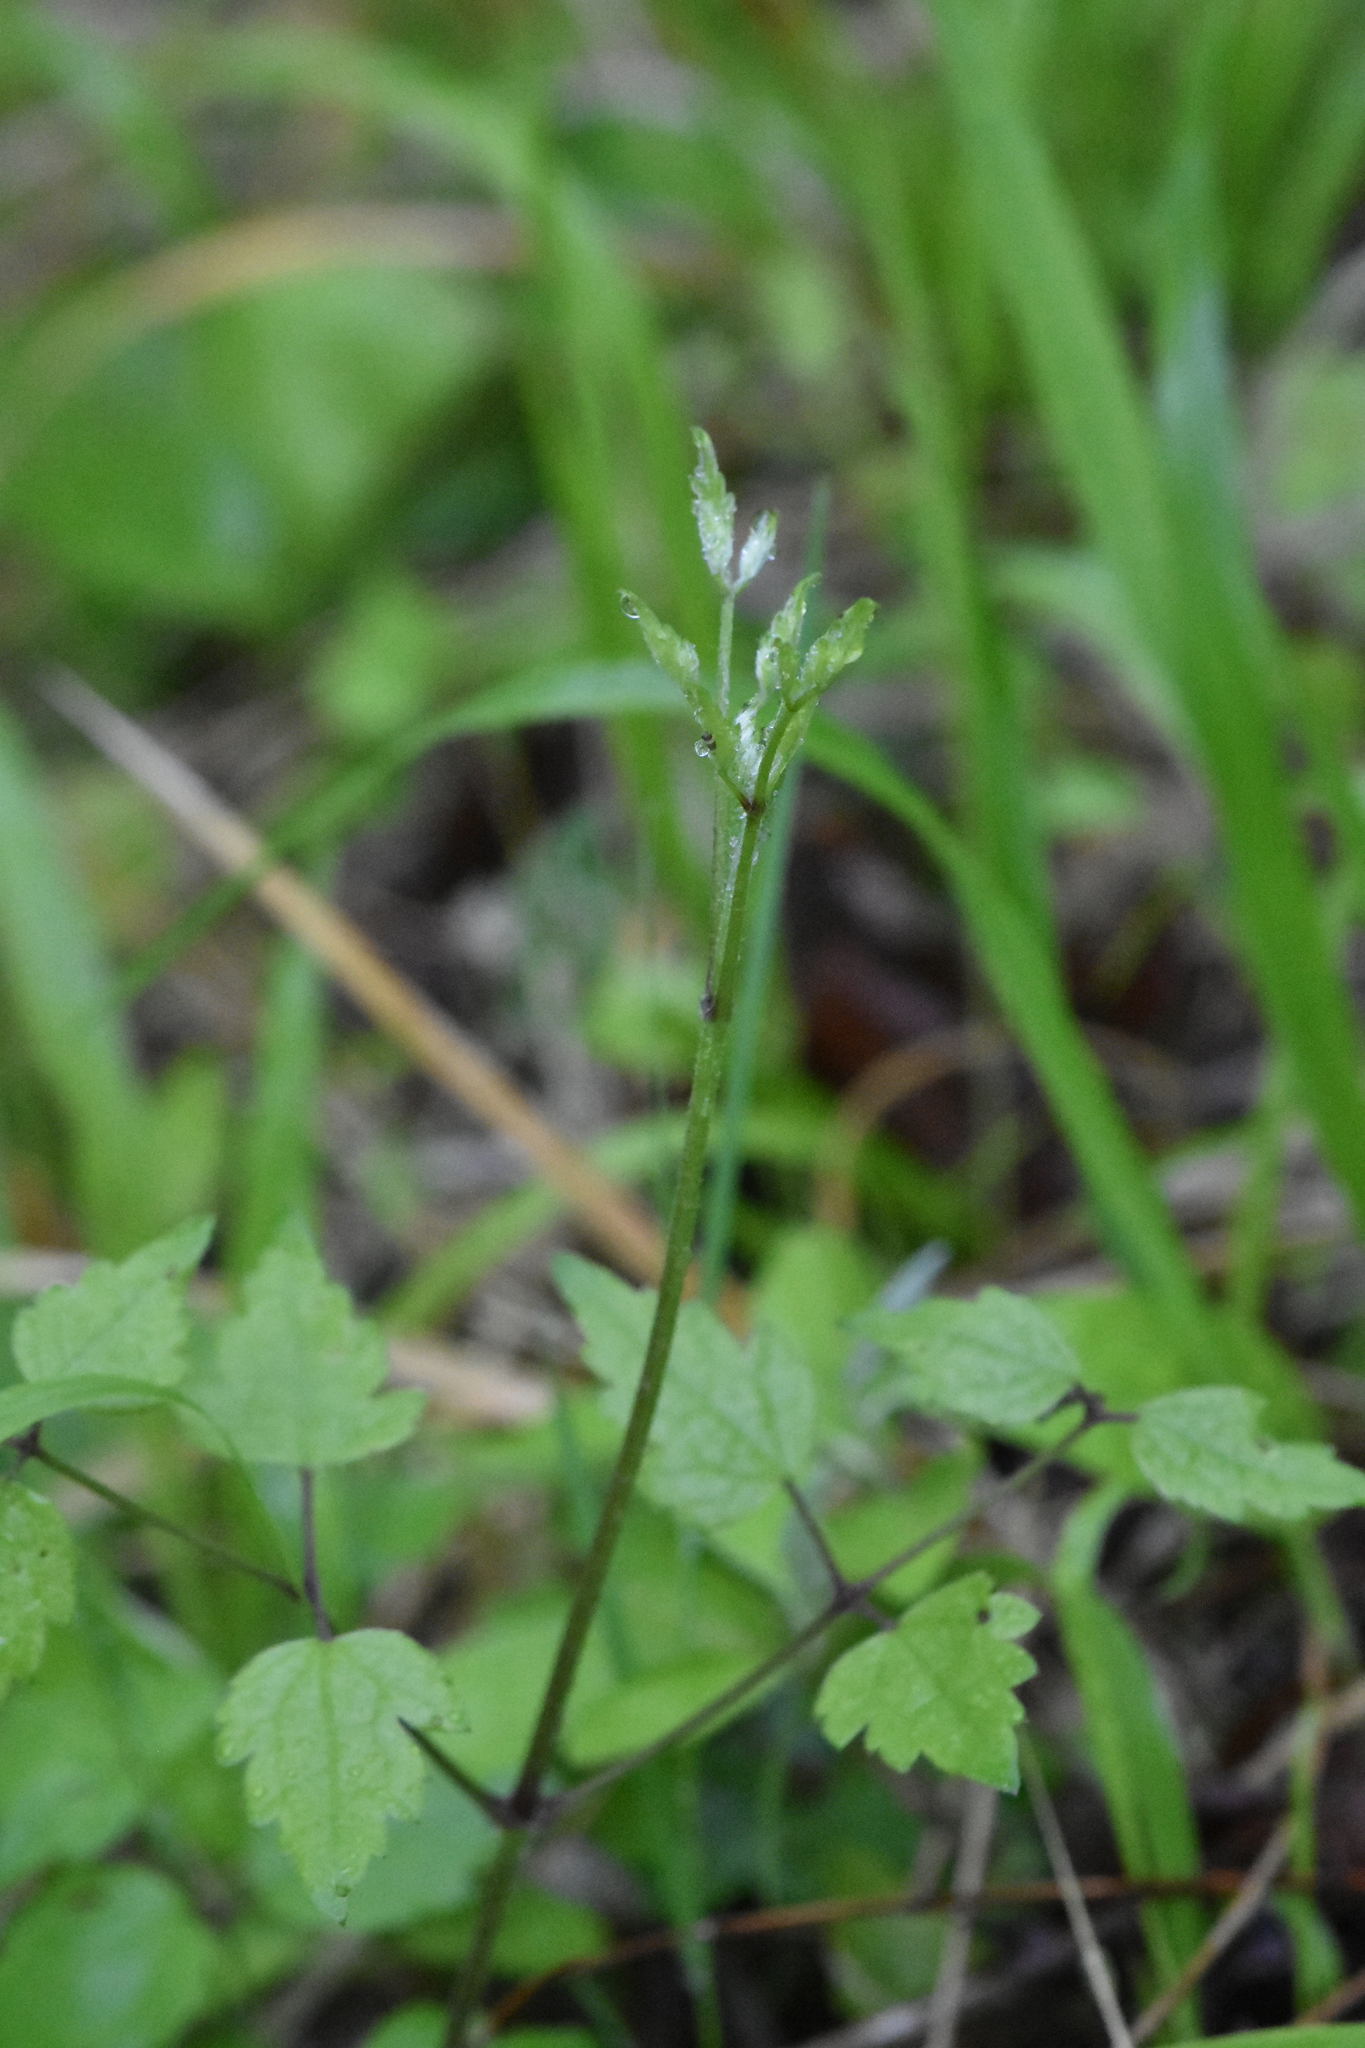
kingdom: Plantae
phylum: Tracheophyta
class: Magnoliopsida
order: Ranunculales
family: Ranunculaceae
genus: Clematis
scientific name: Clematis vitalba
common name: Evergreen clematis
